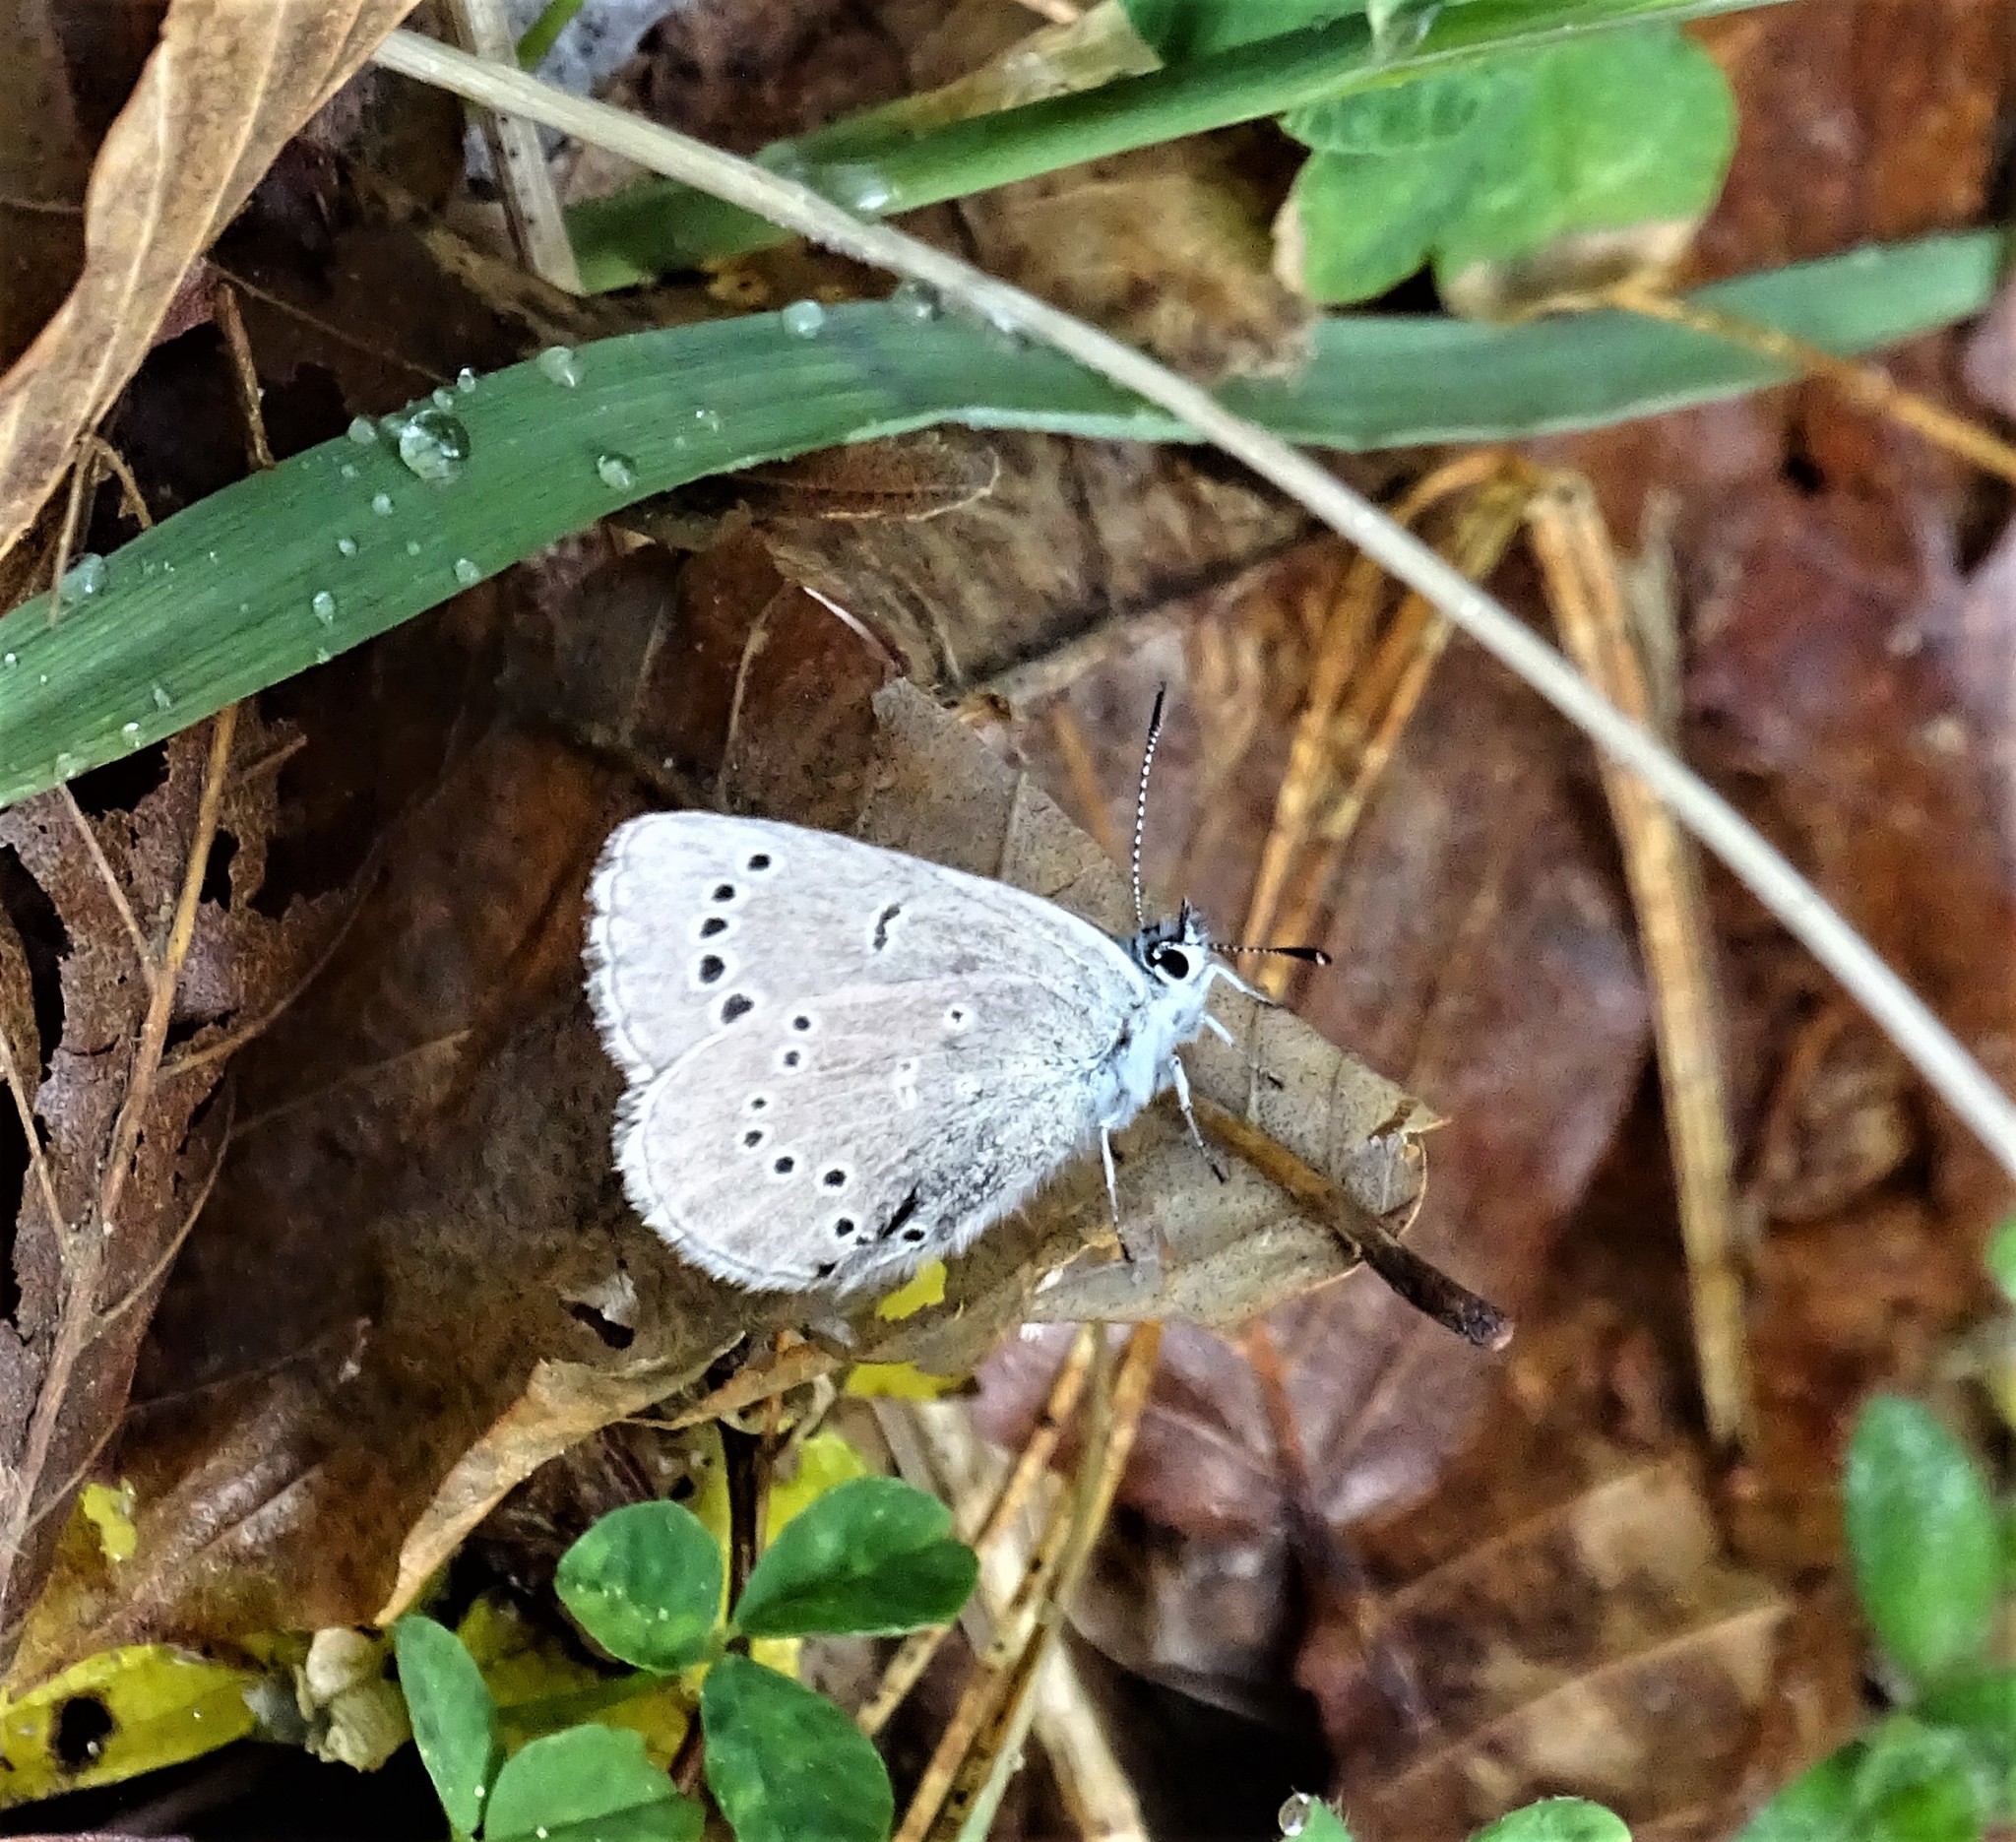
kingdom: Animalia
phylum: Arthropoda
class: Insecta
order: Lepidoptera
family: Lycaenidae
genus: Glaucopsyche
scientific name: Glaucopsyche lygdamus
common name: Silvery blue
